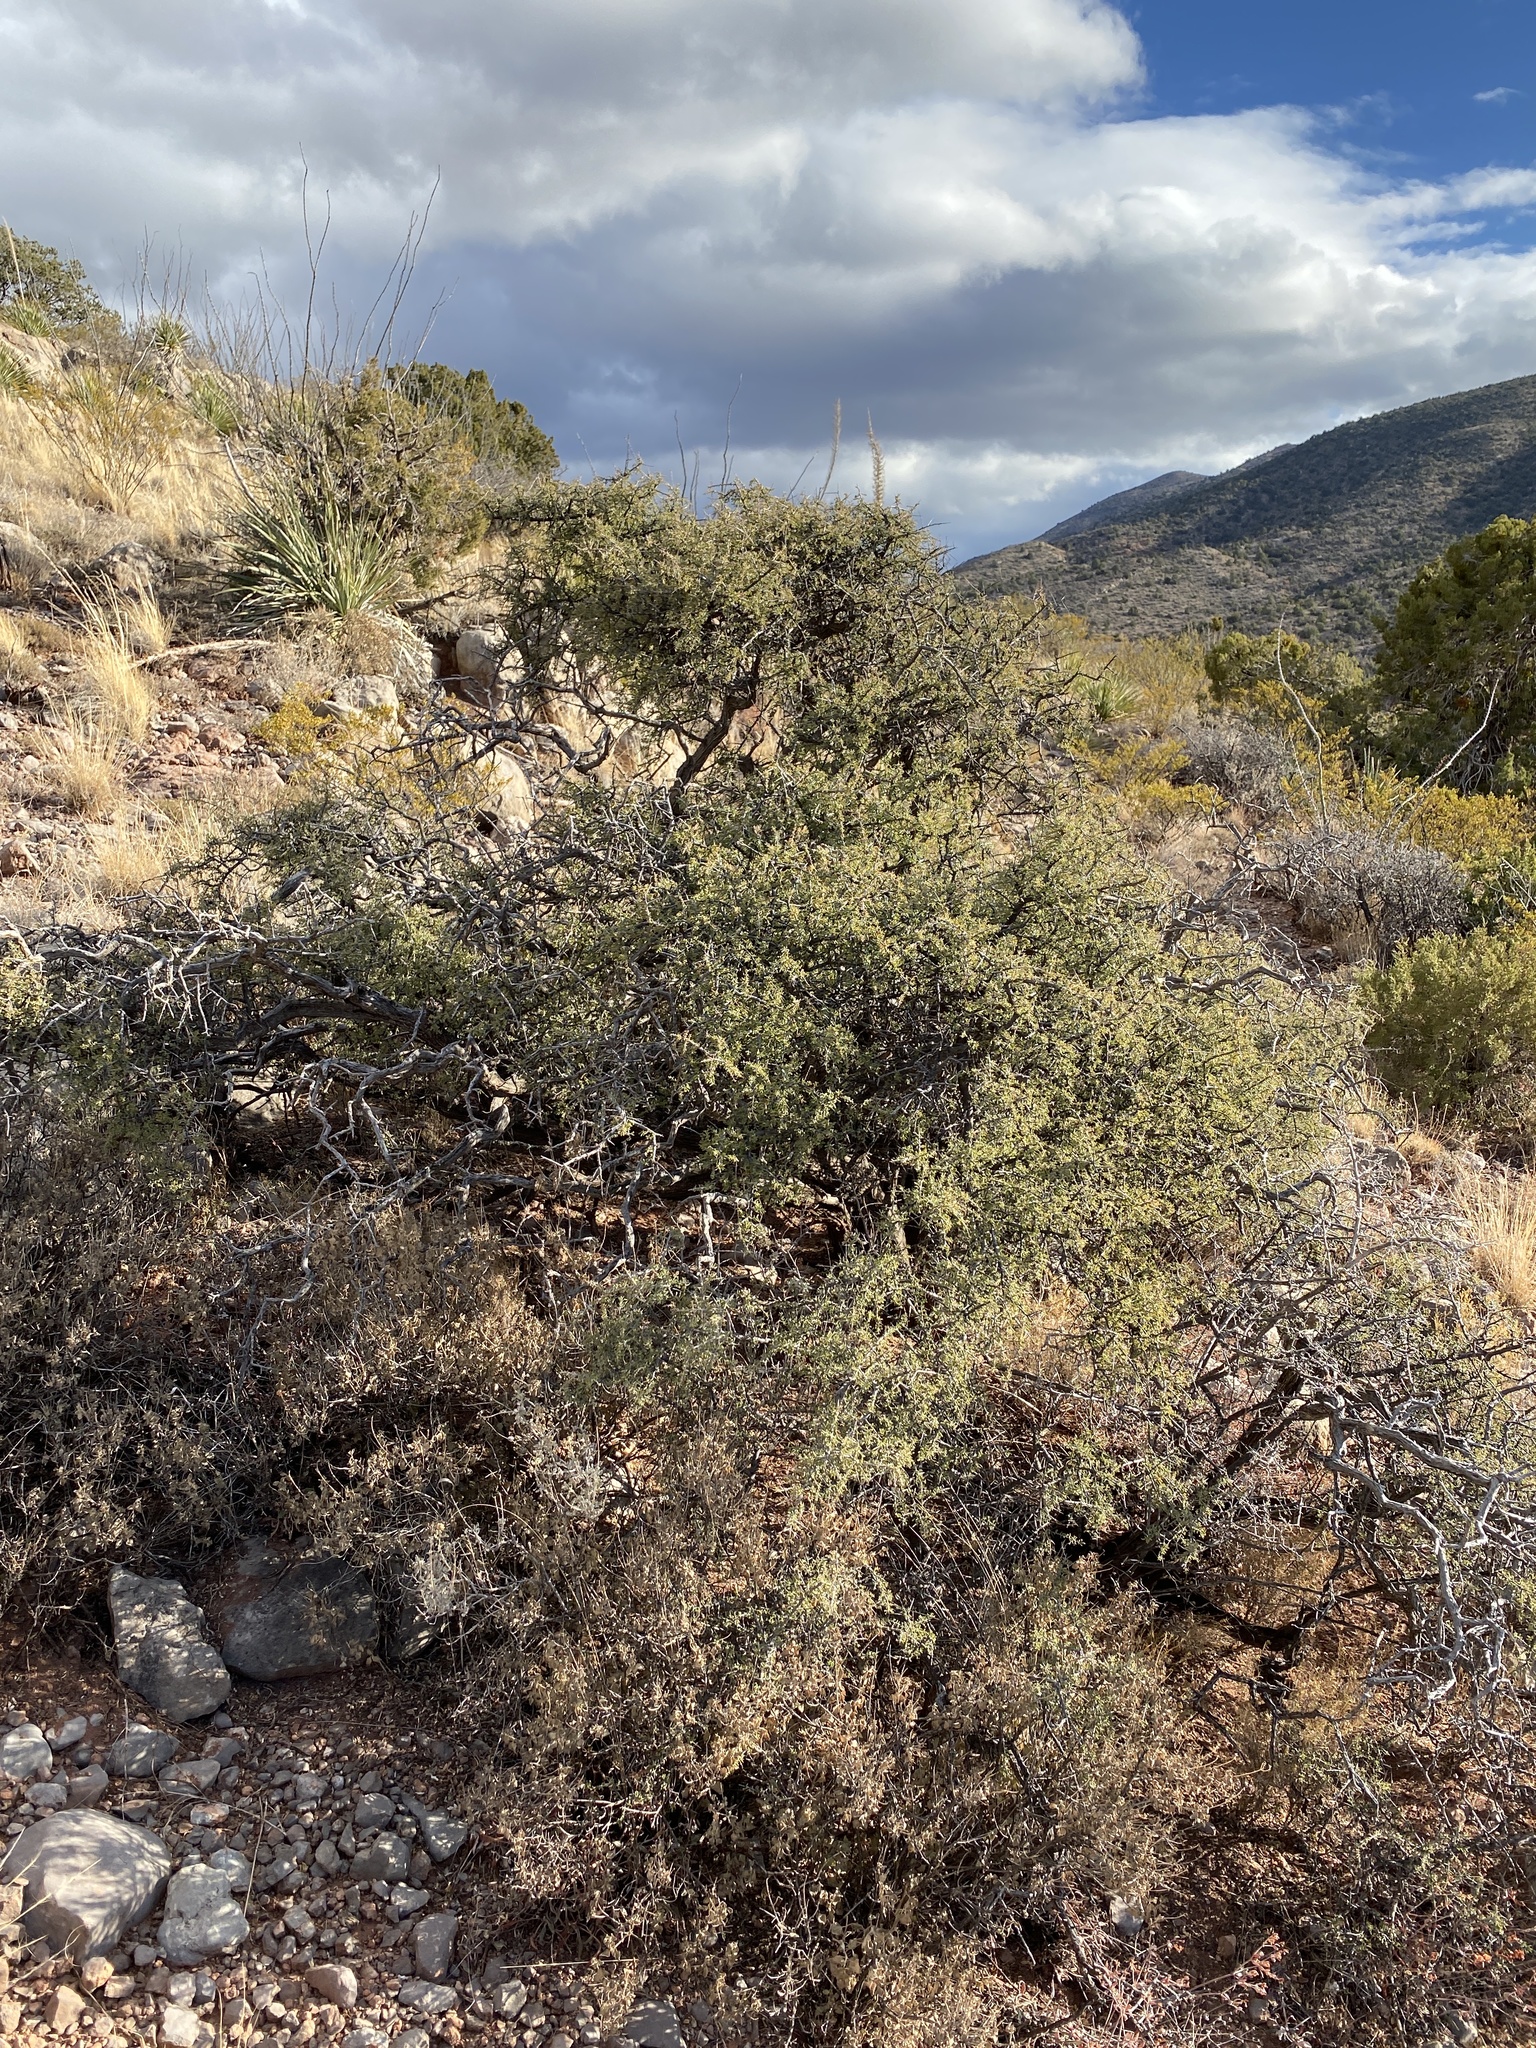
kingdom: Plantae
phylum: Tracheophyta
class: Magnoliopsida
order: Rosales
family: Rhamnaceae
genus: Condalia
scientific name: Condalia warnockii
